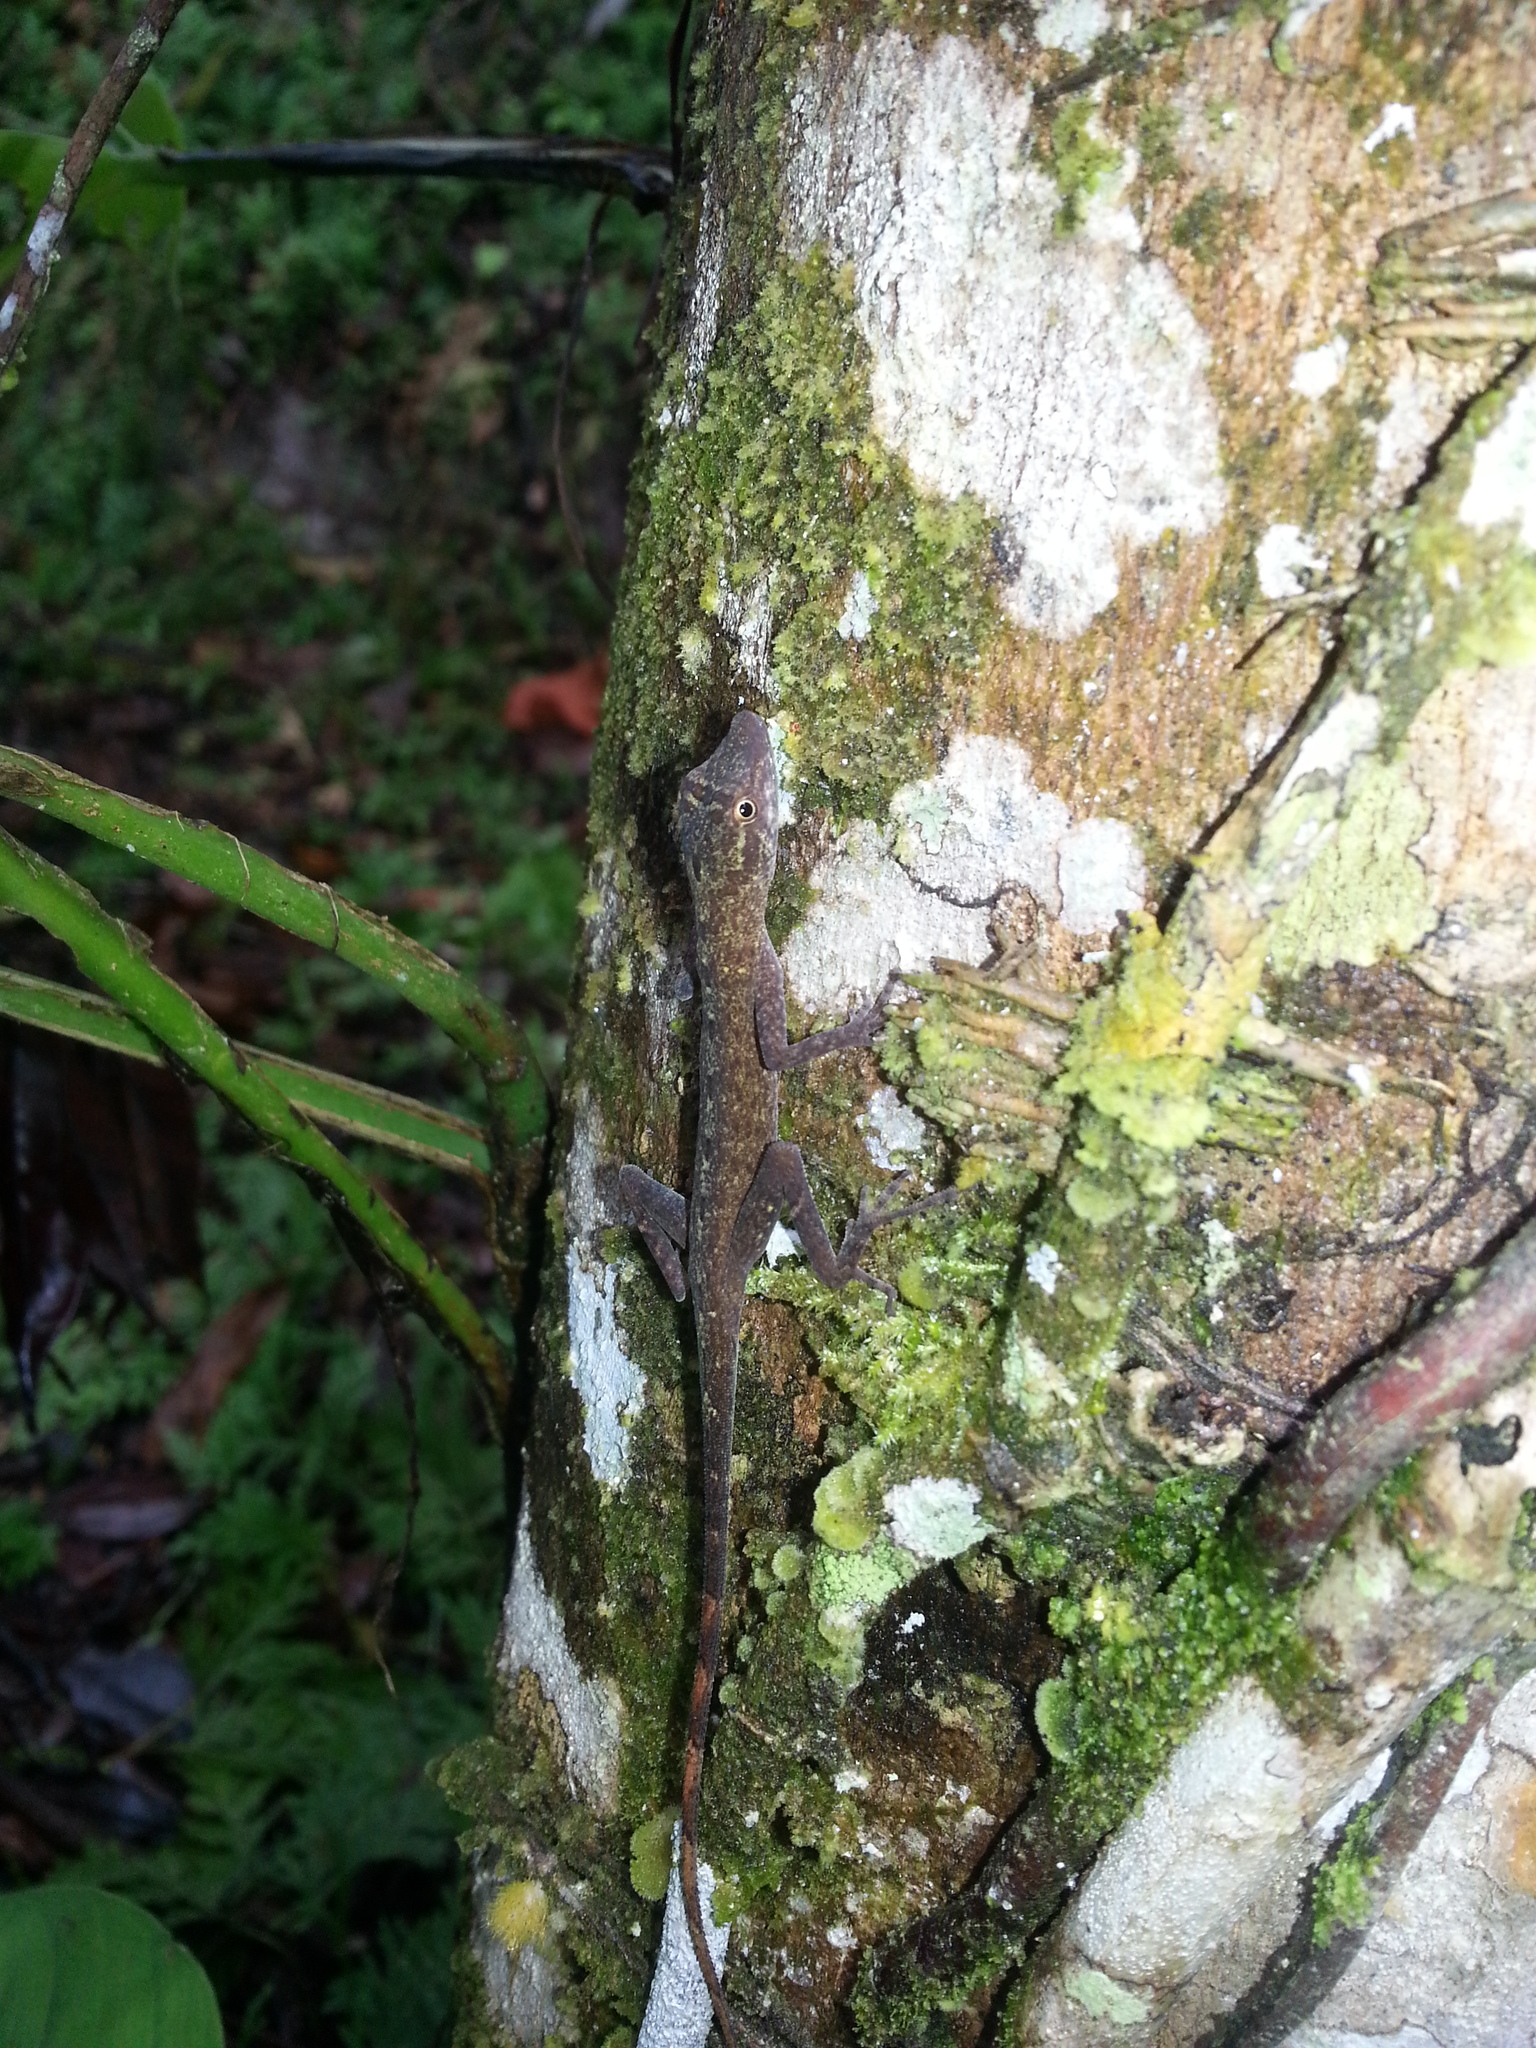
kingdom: Animalia
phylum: Chordata
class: Squamata
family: Dactyloidae
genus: Anolis
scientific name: Anolis ortonii
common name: Bark anole
